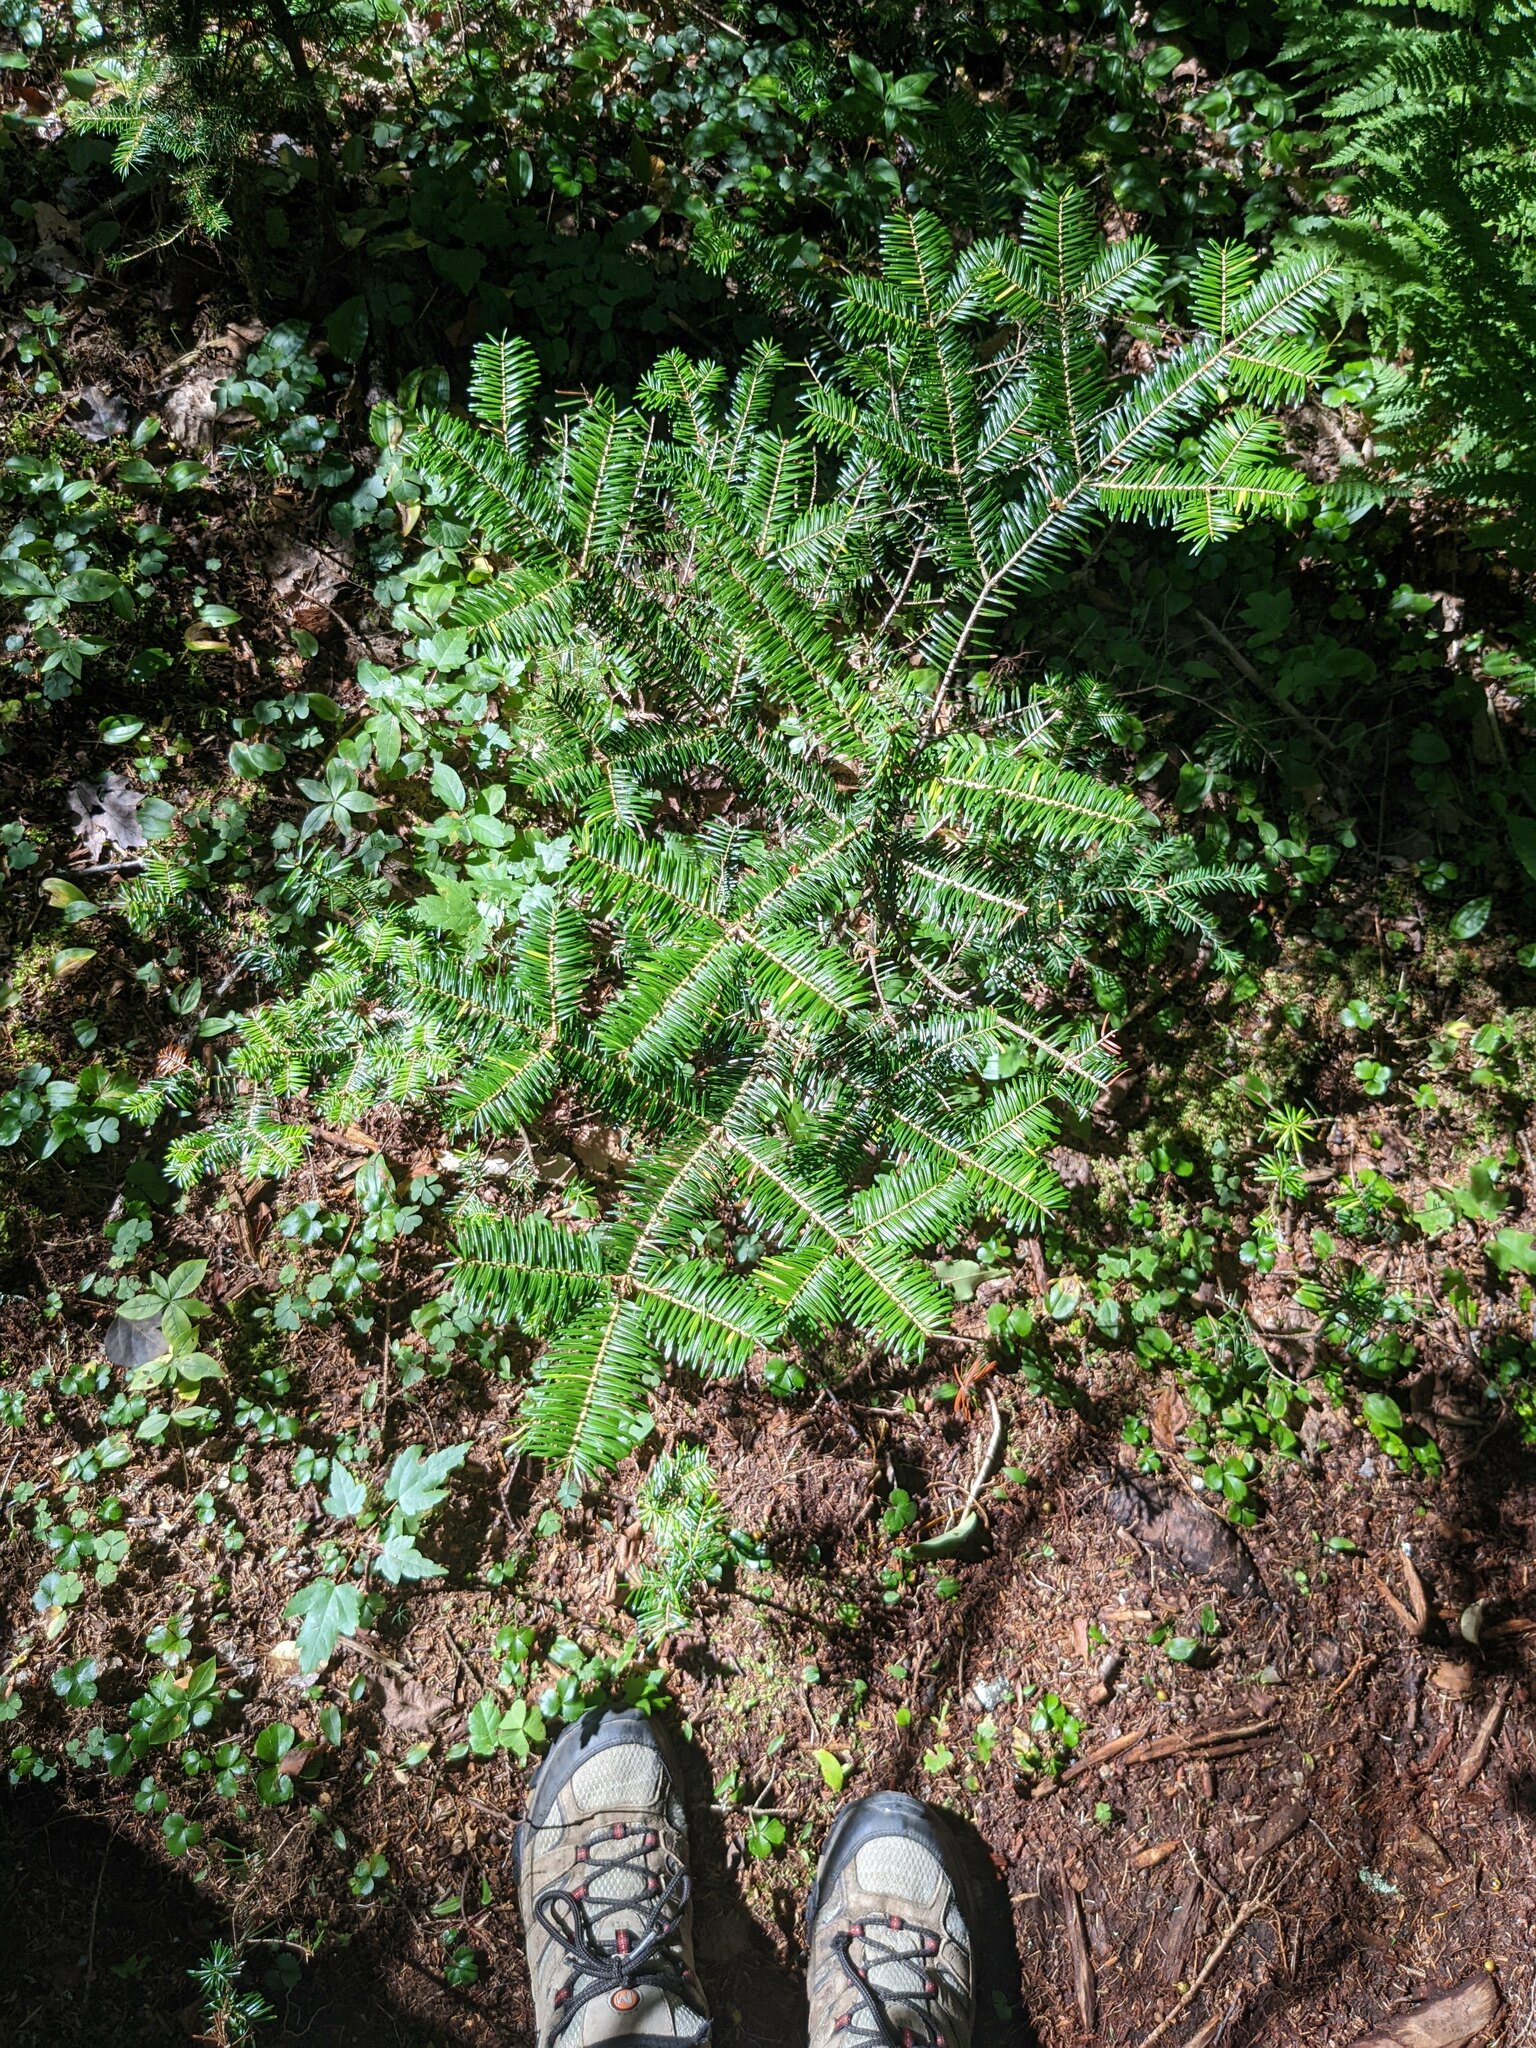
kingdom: Plantae
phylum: Tracheophyta
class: Pinopsida
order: Pinales
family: Pinaceae
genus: Abies
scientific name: Abies balsamea
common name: Balsam fir
